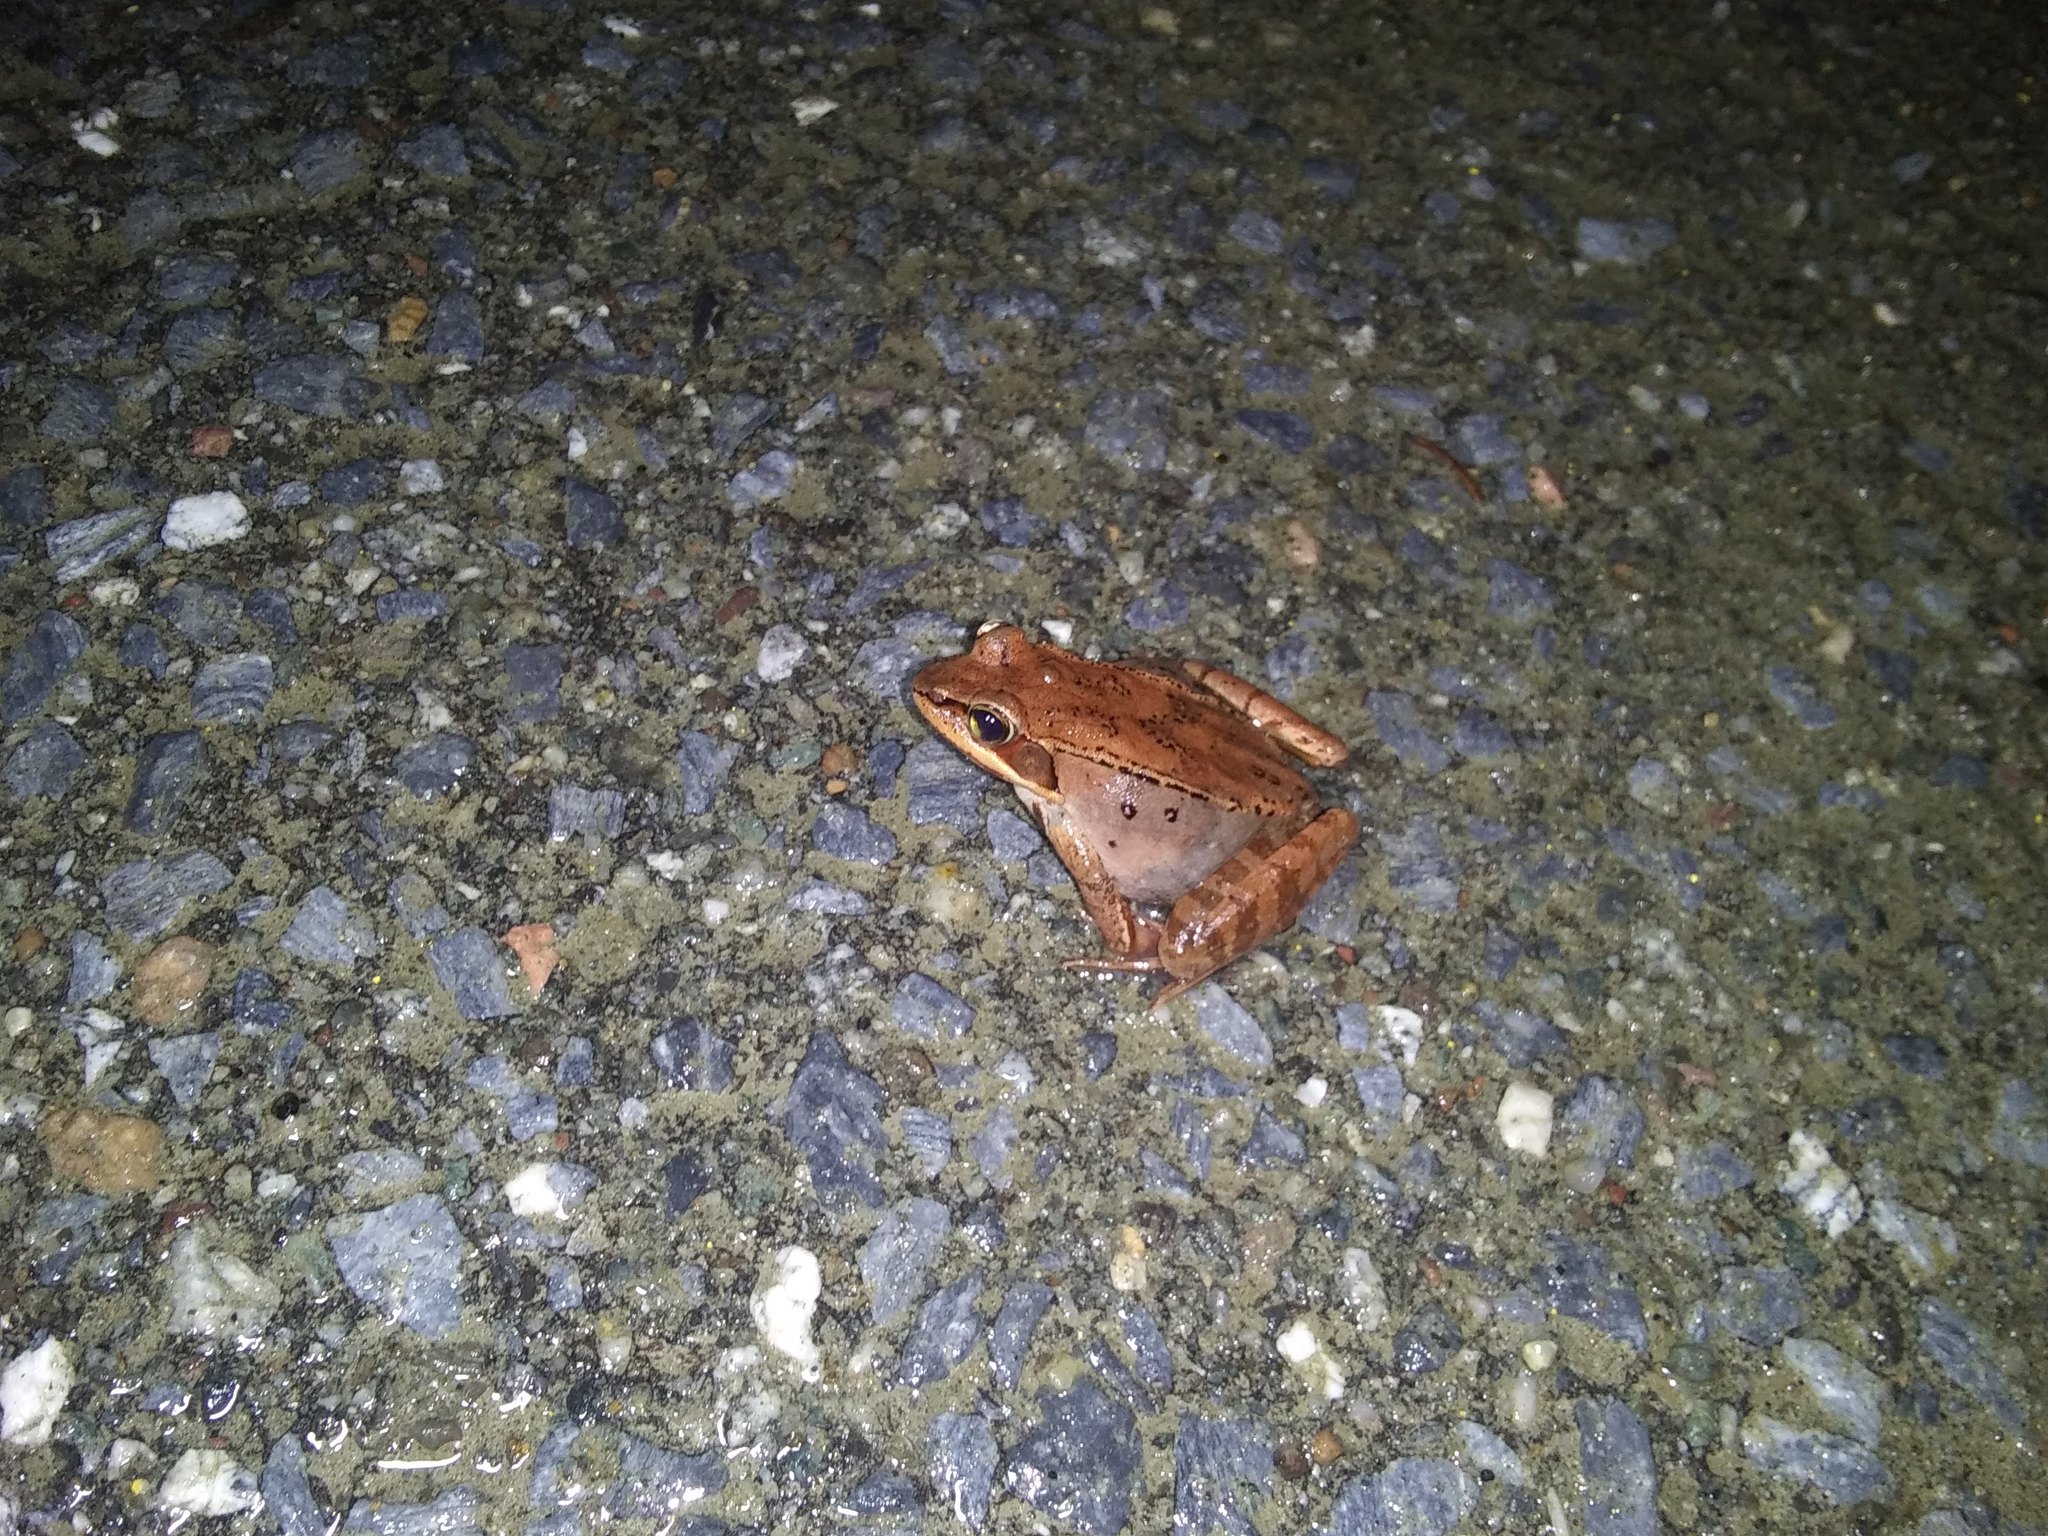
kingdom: Animalia
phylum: Chordata
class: Amphibia
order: Anura
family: Ranidae
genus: Lithobates
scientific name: Lithobates sylvaticus
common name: Wood frog
